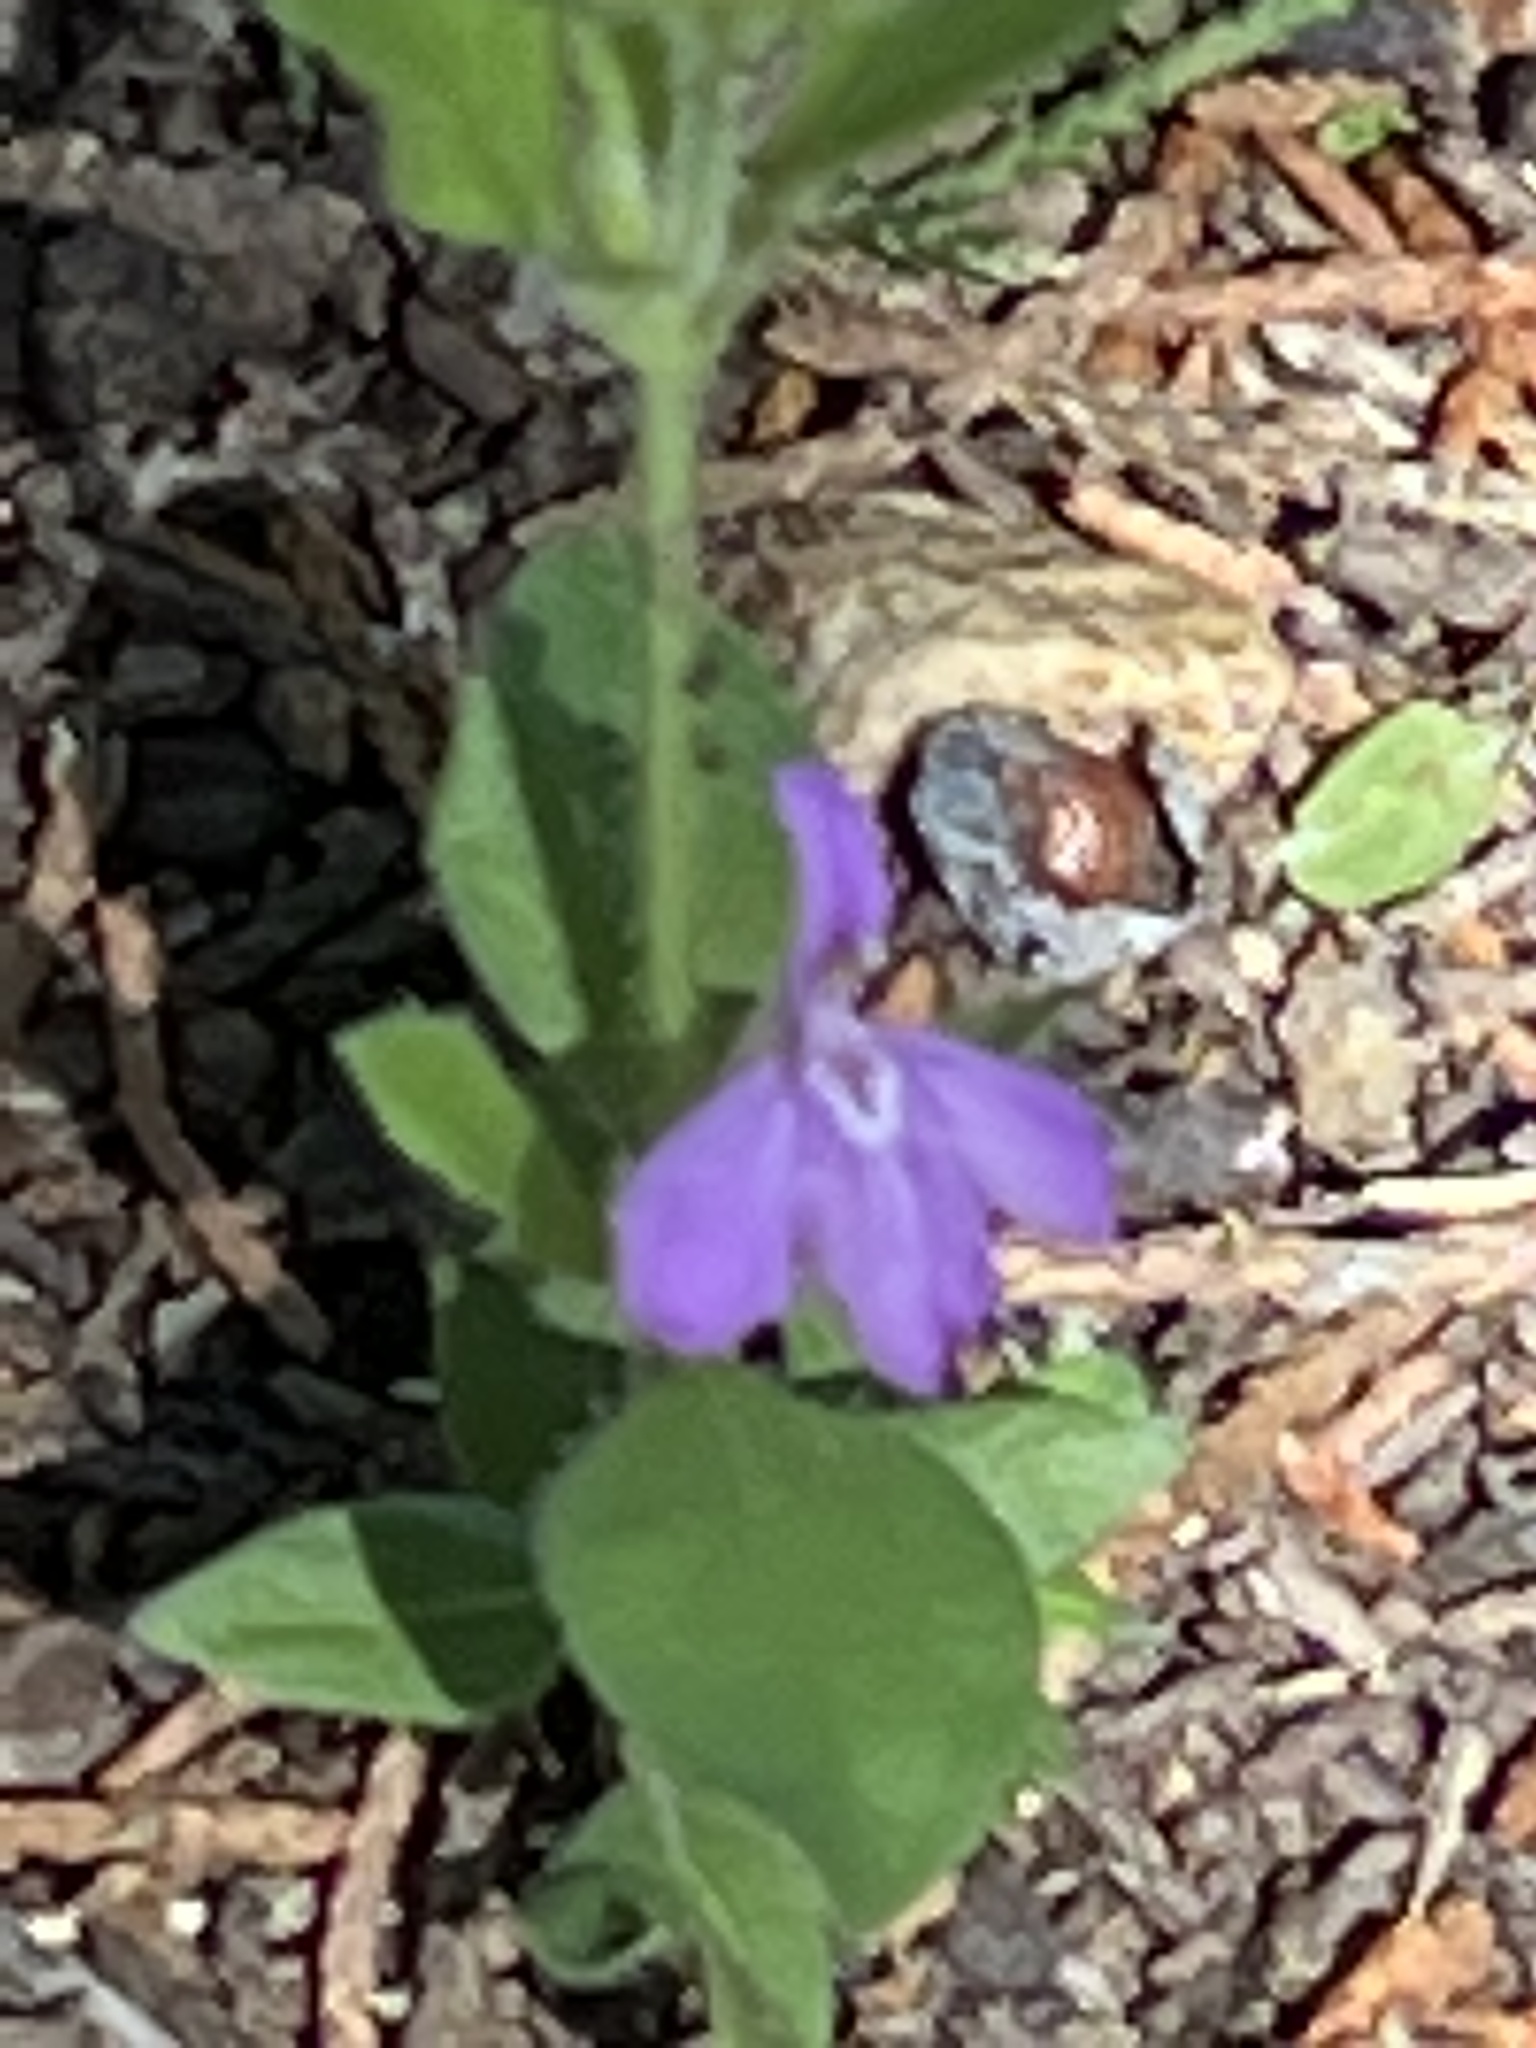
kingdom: Plantae
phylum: Tracheophyta
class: Magnoliopsida
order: Lamiales
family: Acanthaceae
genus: Justicia
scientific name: Justicia pilosella
